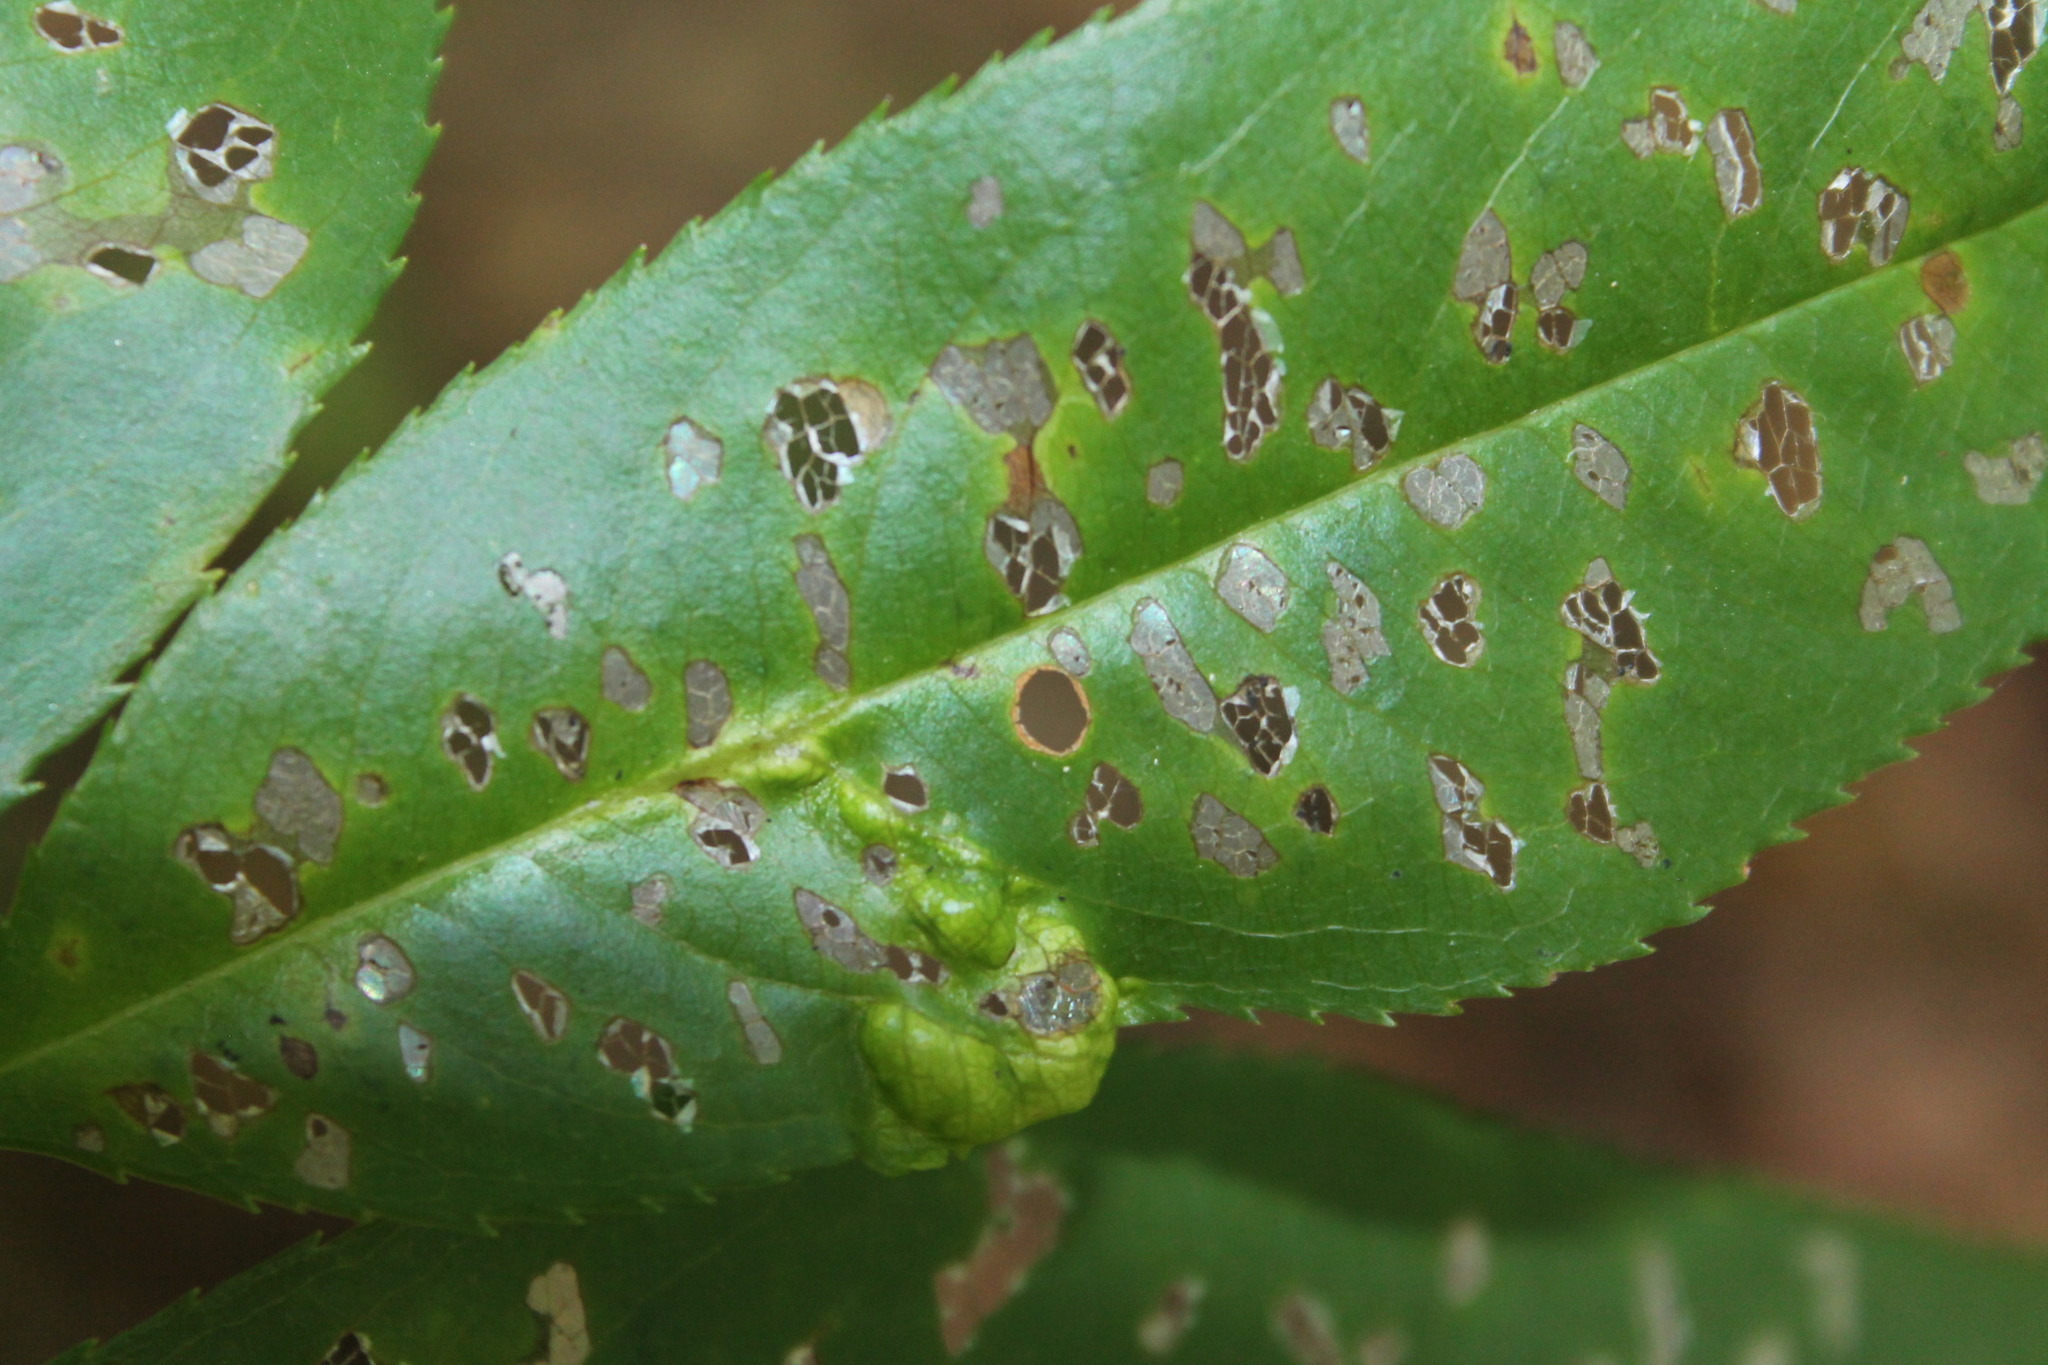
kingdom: Animalia
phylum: Arthropoda
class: Arachnida
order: Trombidiformes
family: Eriophyidae
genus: Eriophyes
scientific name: Eriophyes
